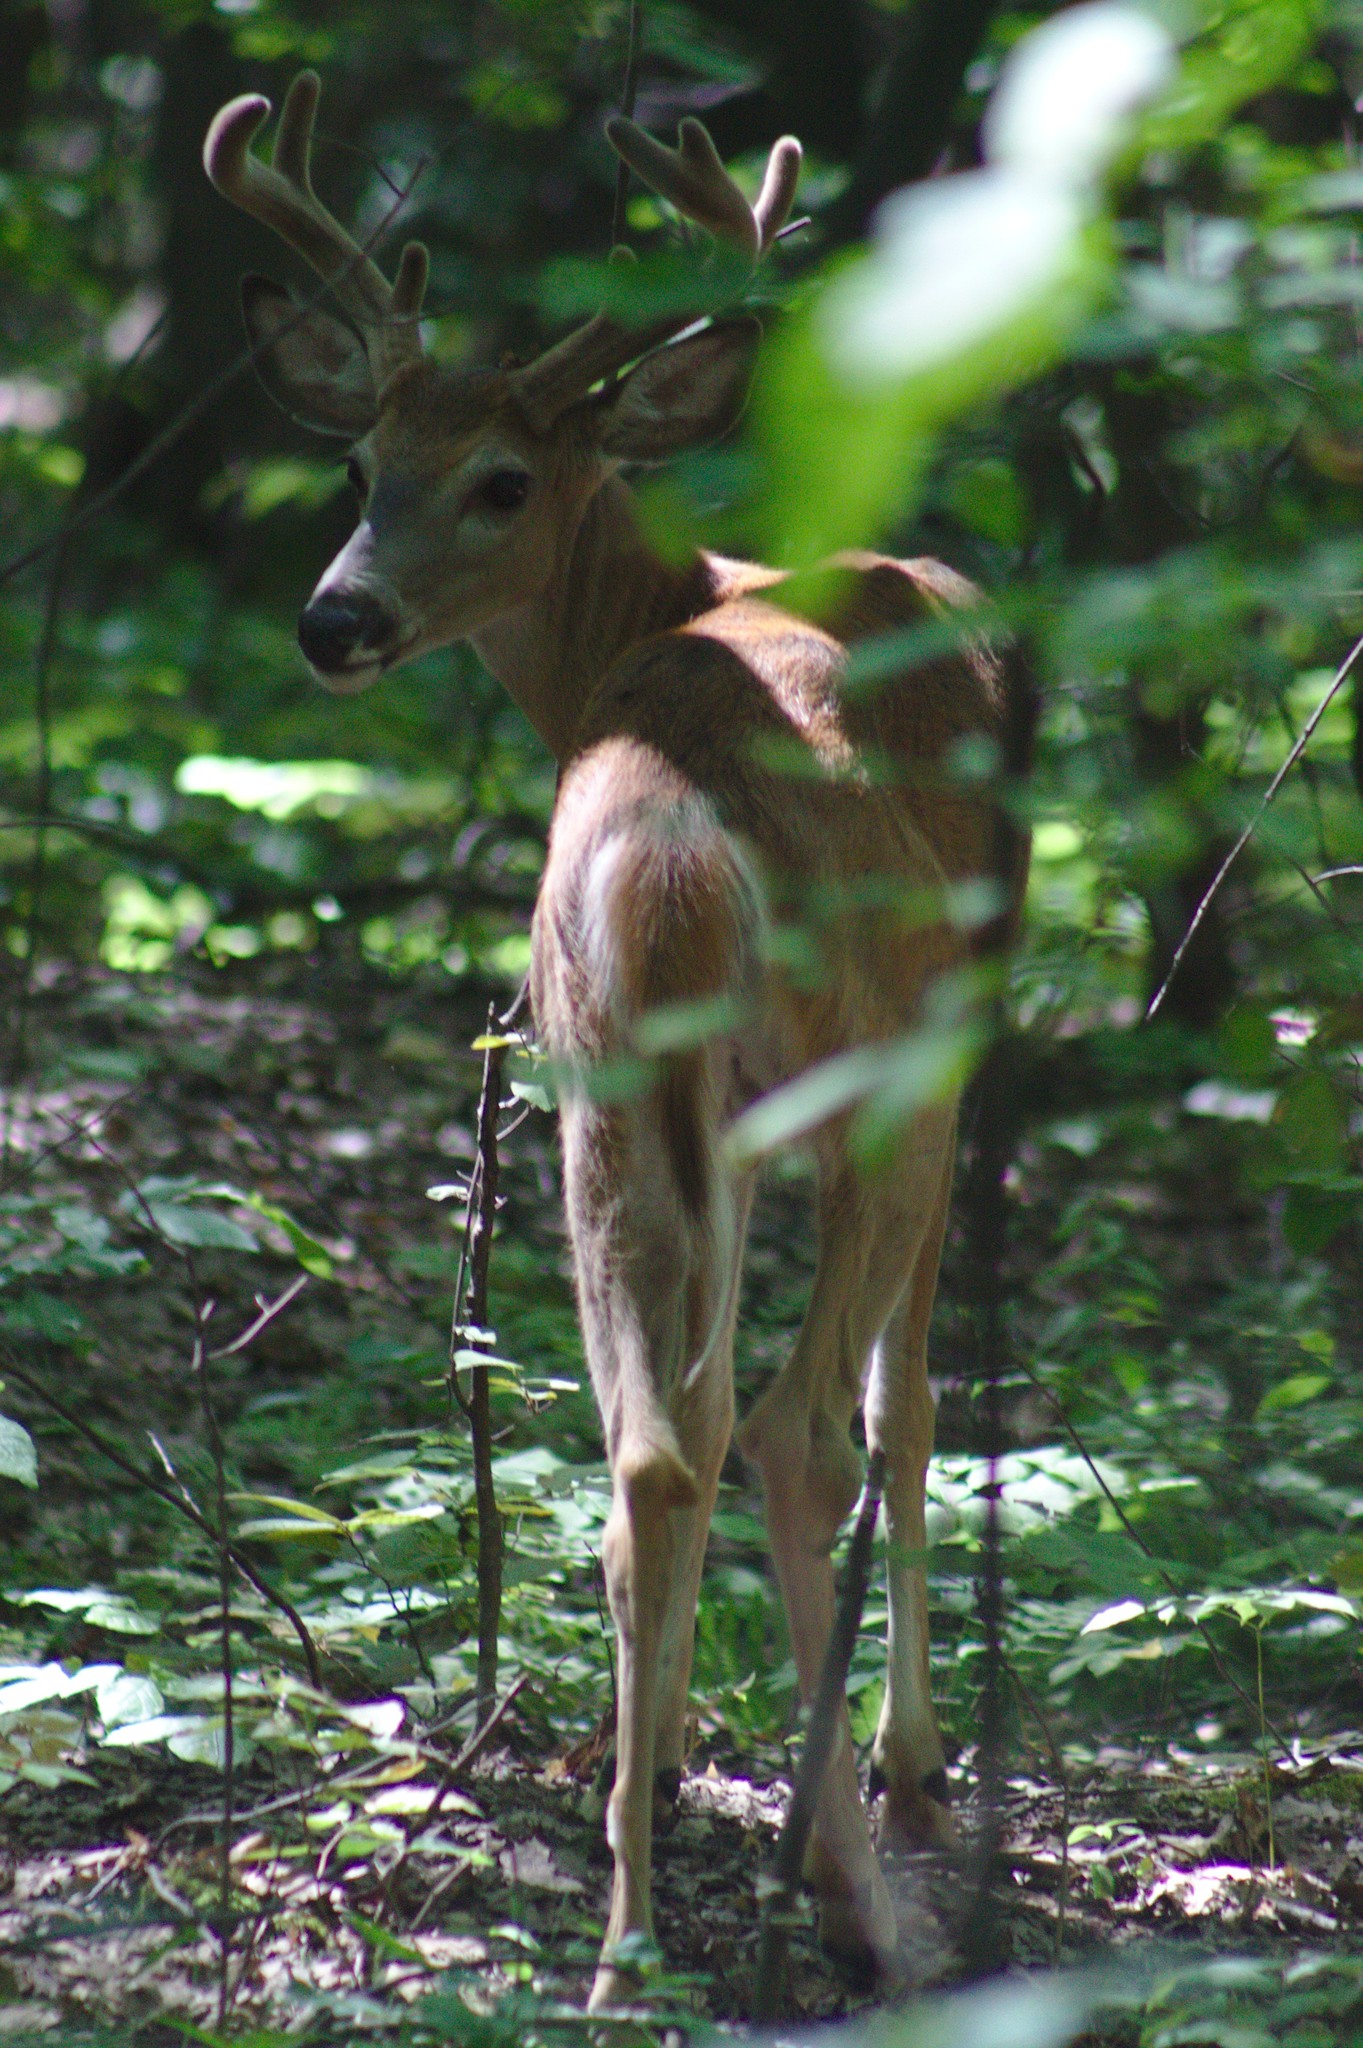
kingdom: Animalia
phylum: Chordata
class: Mammalia
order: Artiodactyla
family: Cervidae
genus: Odocoileus
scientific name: Odocoileus virginianus
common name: White-tailed deer
